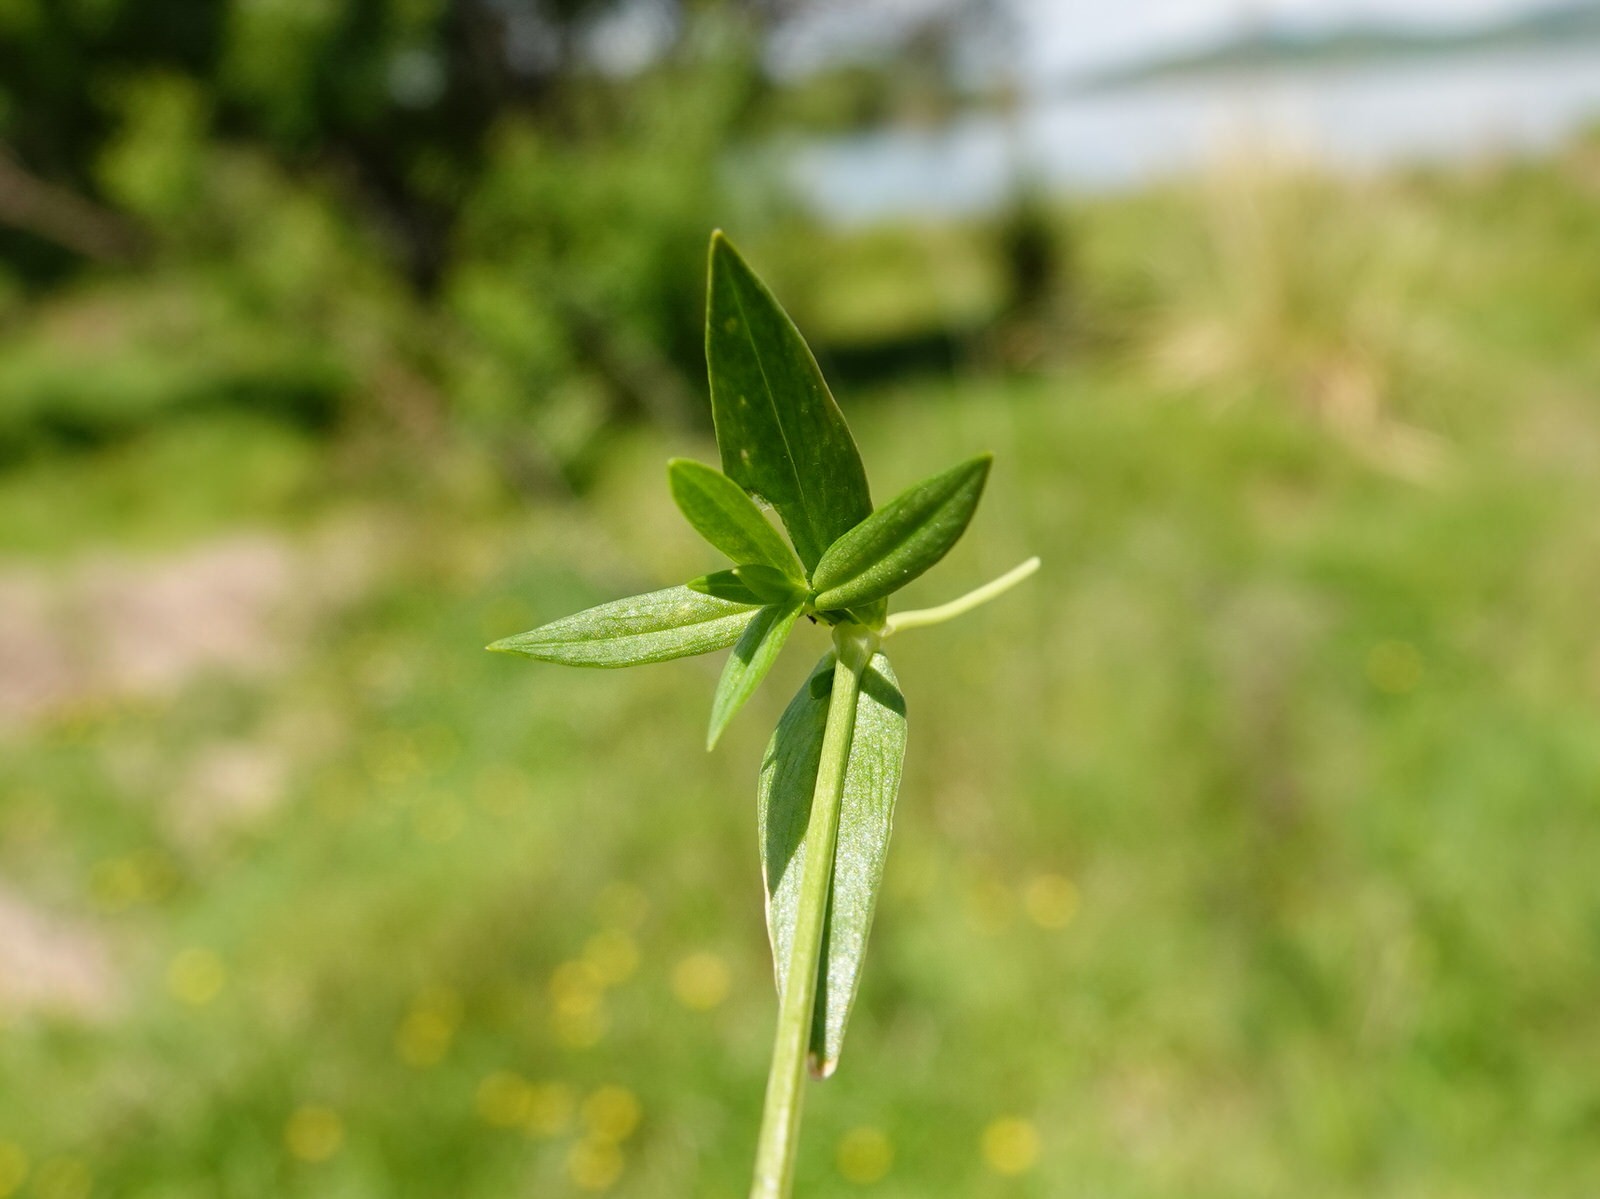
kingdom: Plantae
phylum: Tracheophyta
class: Magnoliopsida
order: Caryophyllales
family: Caryophyllaceae
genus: Stellaria
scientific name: Stellaria graminea
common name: Grass-like starwort
